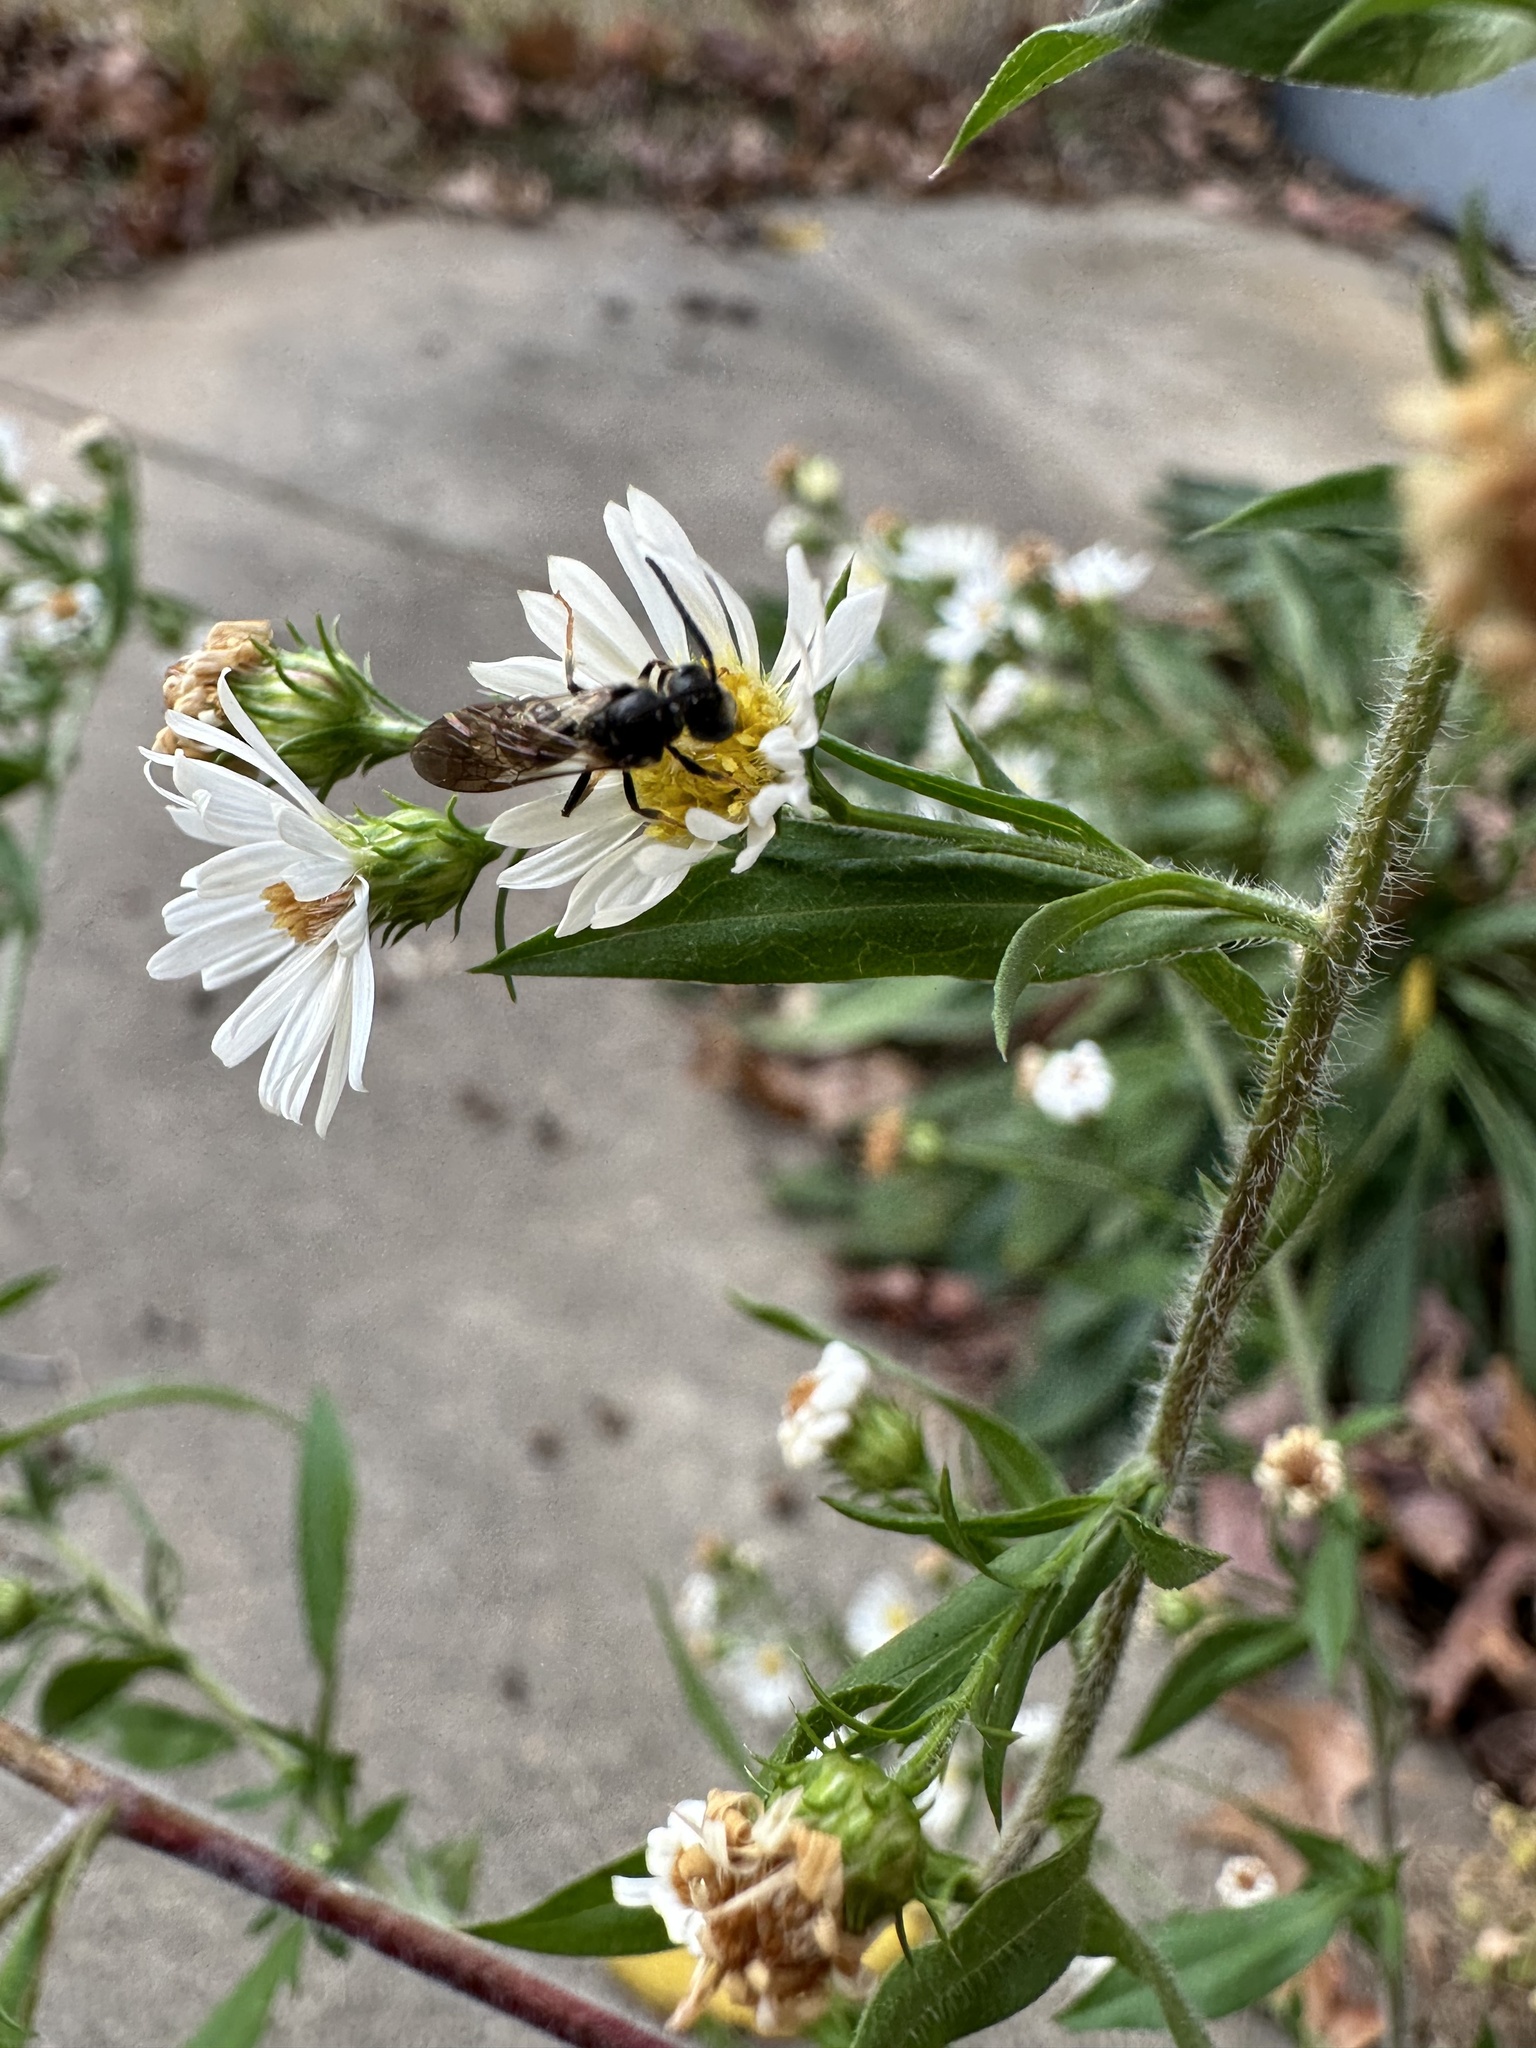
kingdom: Animalia
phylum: Arthropoda
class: Insecta
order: Hymenoptera
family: Halictidae
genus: Lasioglossum
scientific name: Lasioglossum fuscipenne
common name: Brown-winged sweat bee
